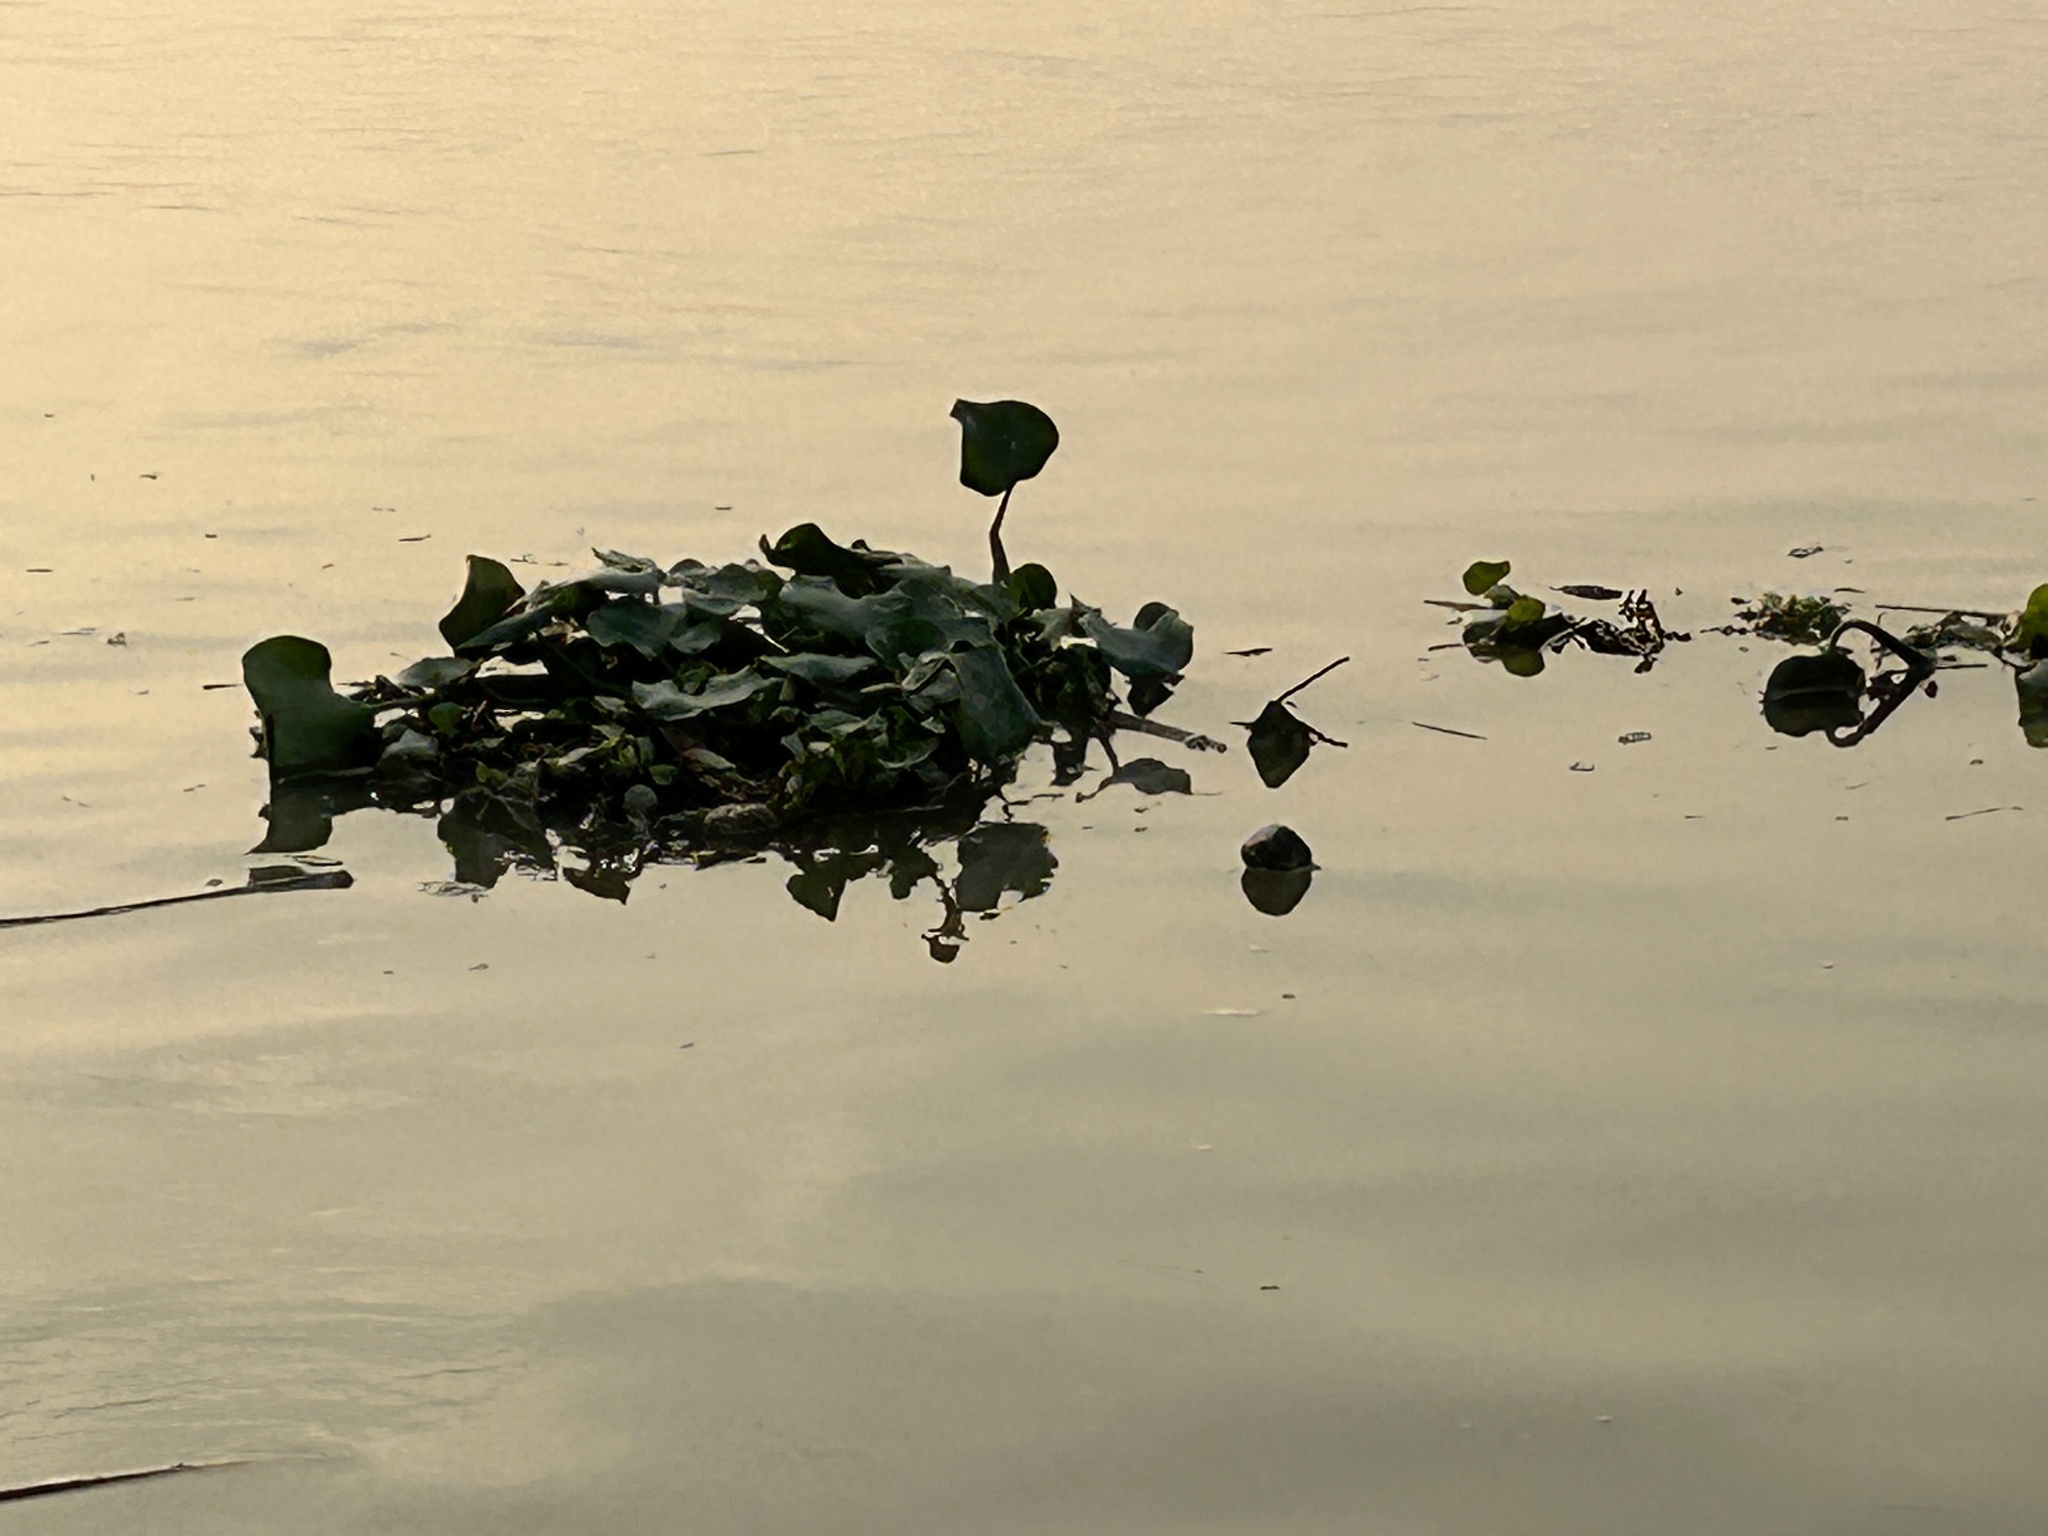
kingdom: Plantae
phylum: Tracheophyta
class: Liliopsida
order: Commelinales
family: Pontederiaceae
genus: Pontederia
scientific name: Pontederia crassipes
